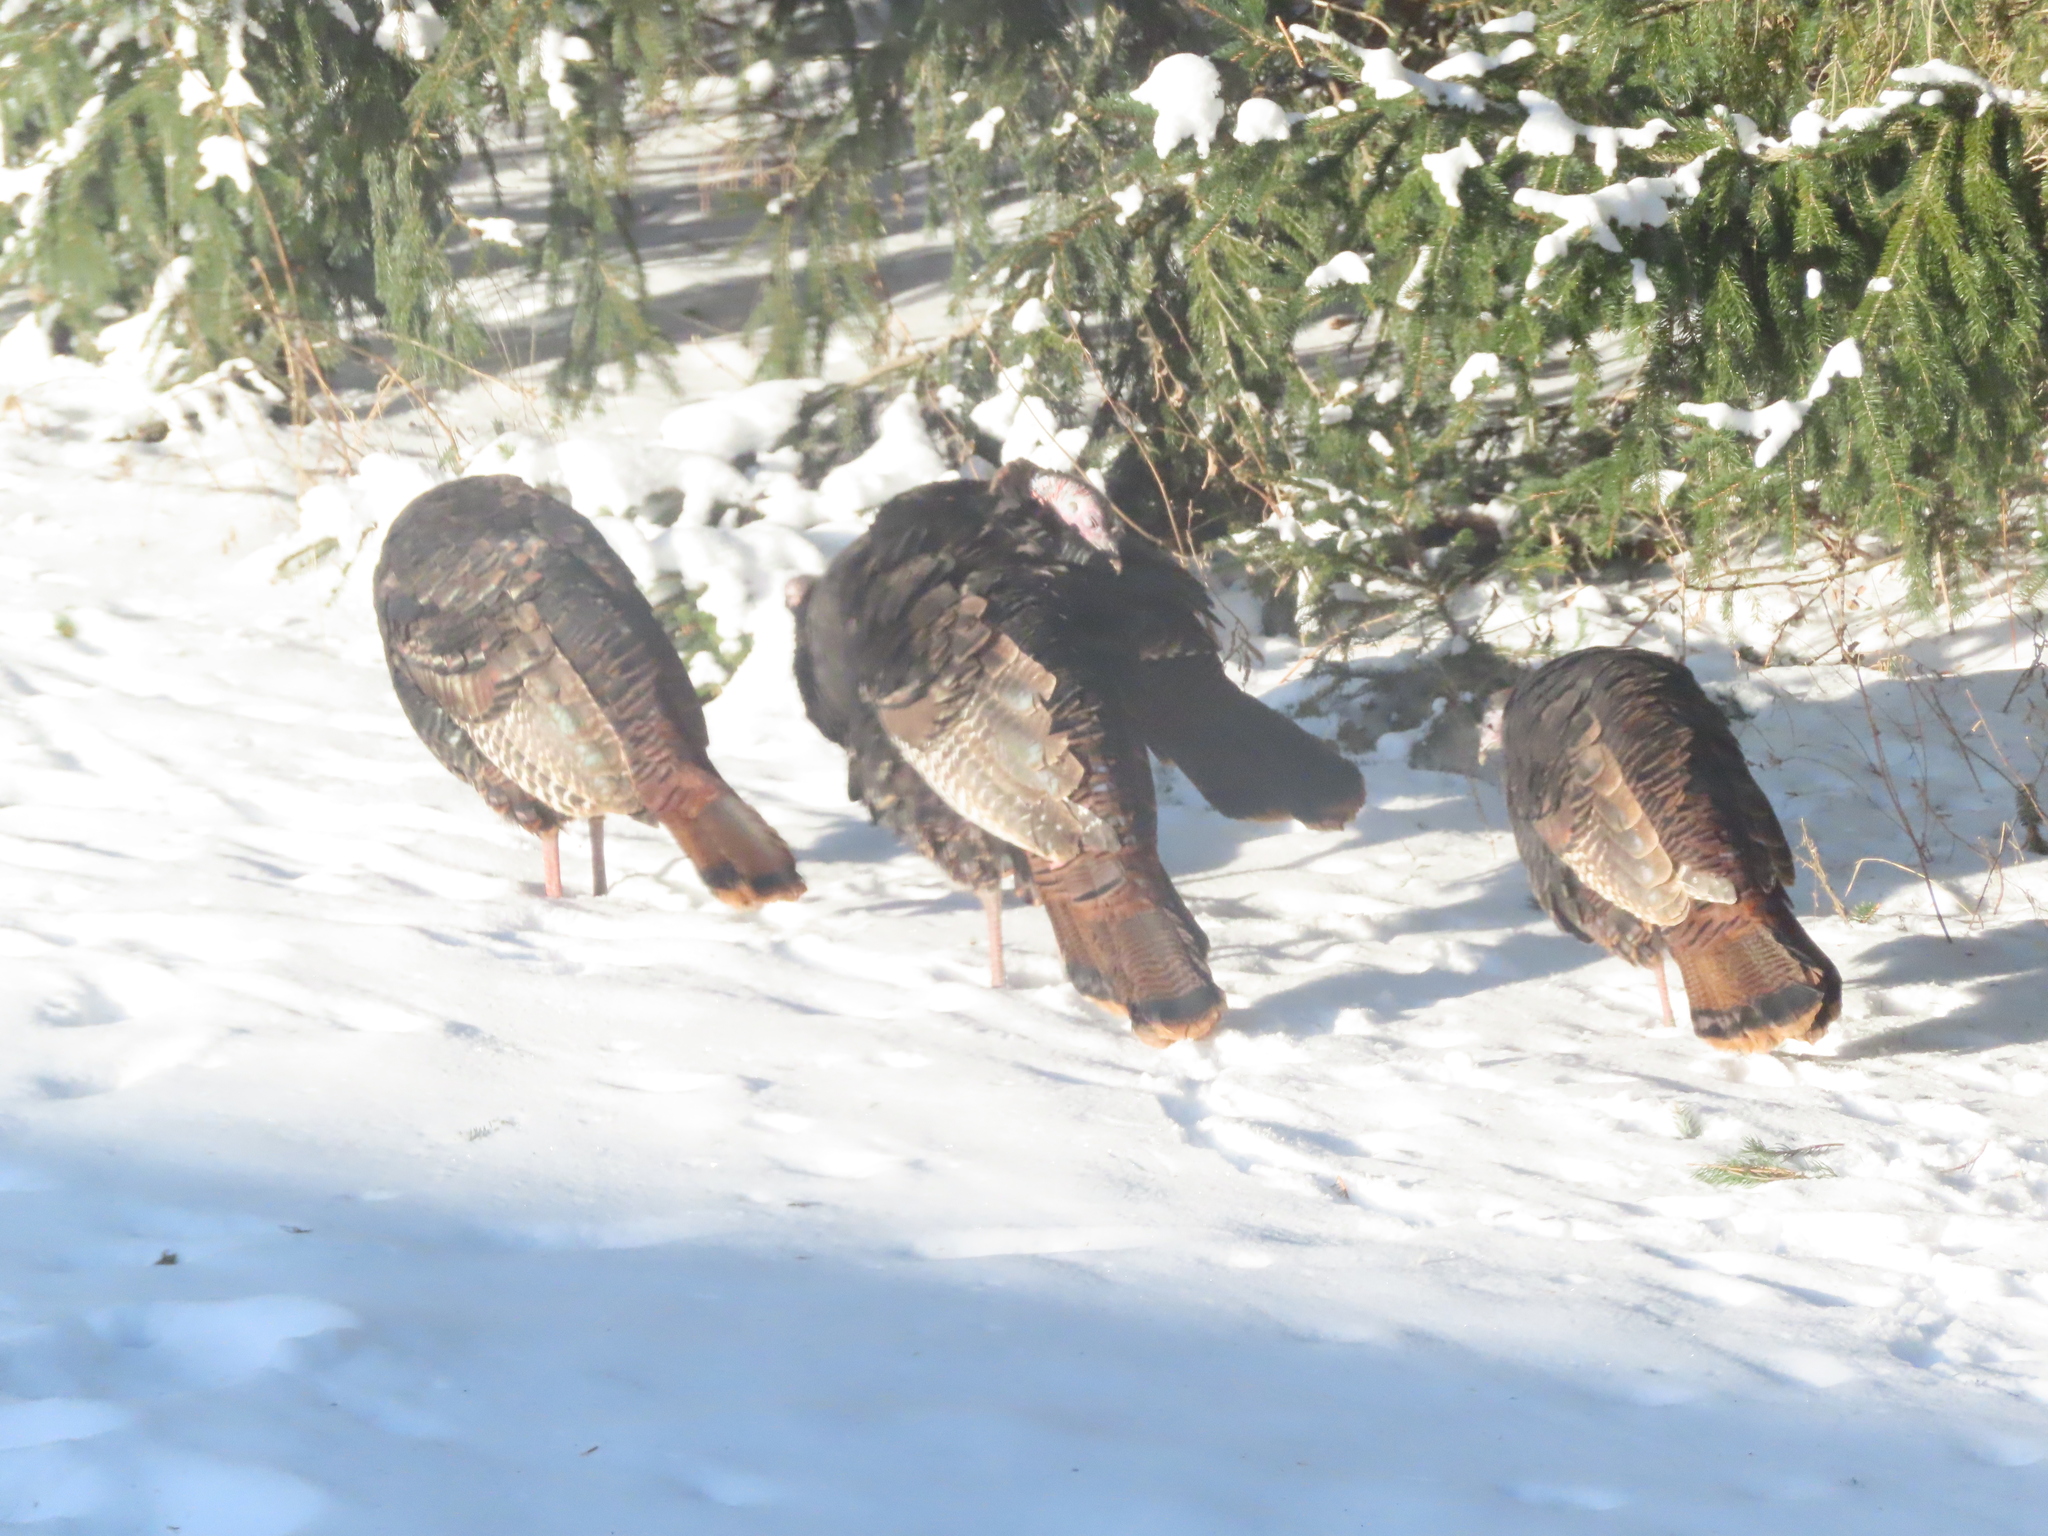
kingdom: Animalia
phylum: Chordata
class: Aves
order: Galliformes
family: Phasianidae
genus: Meleagris
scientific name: Meleagris gallopavo
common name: Wild turkey
